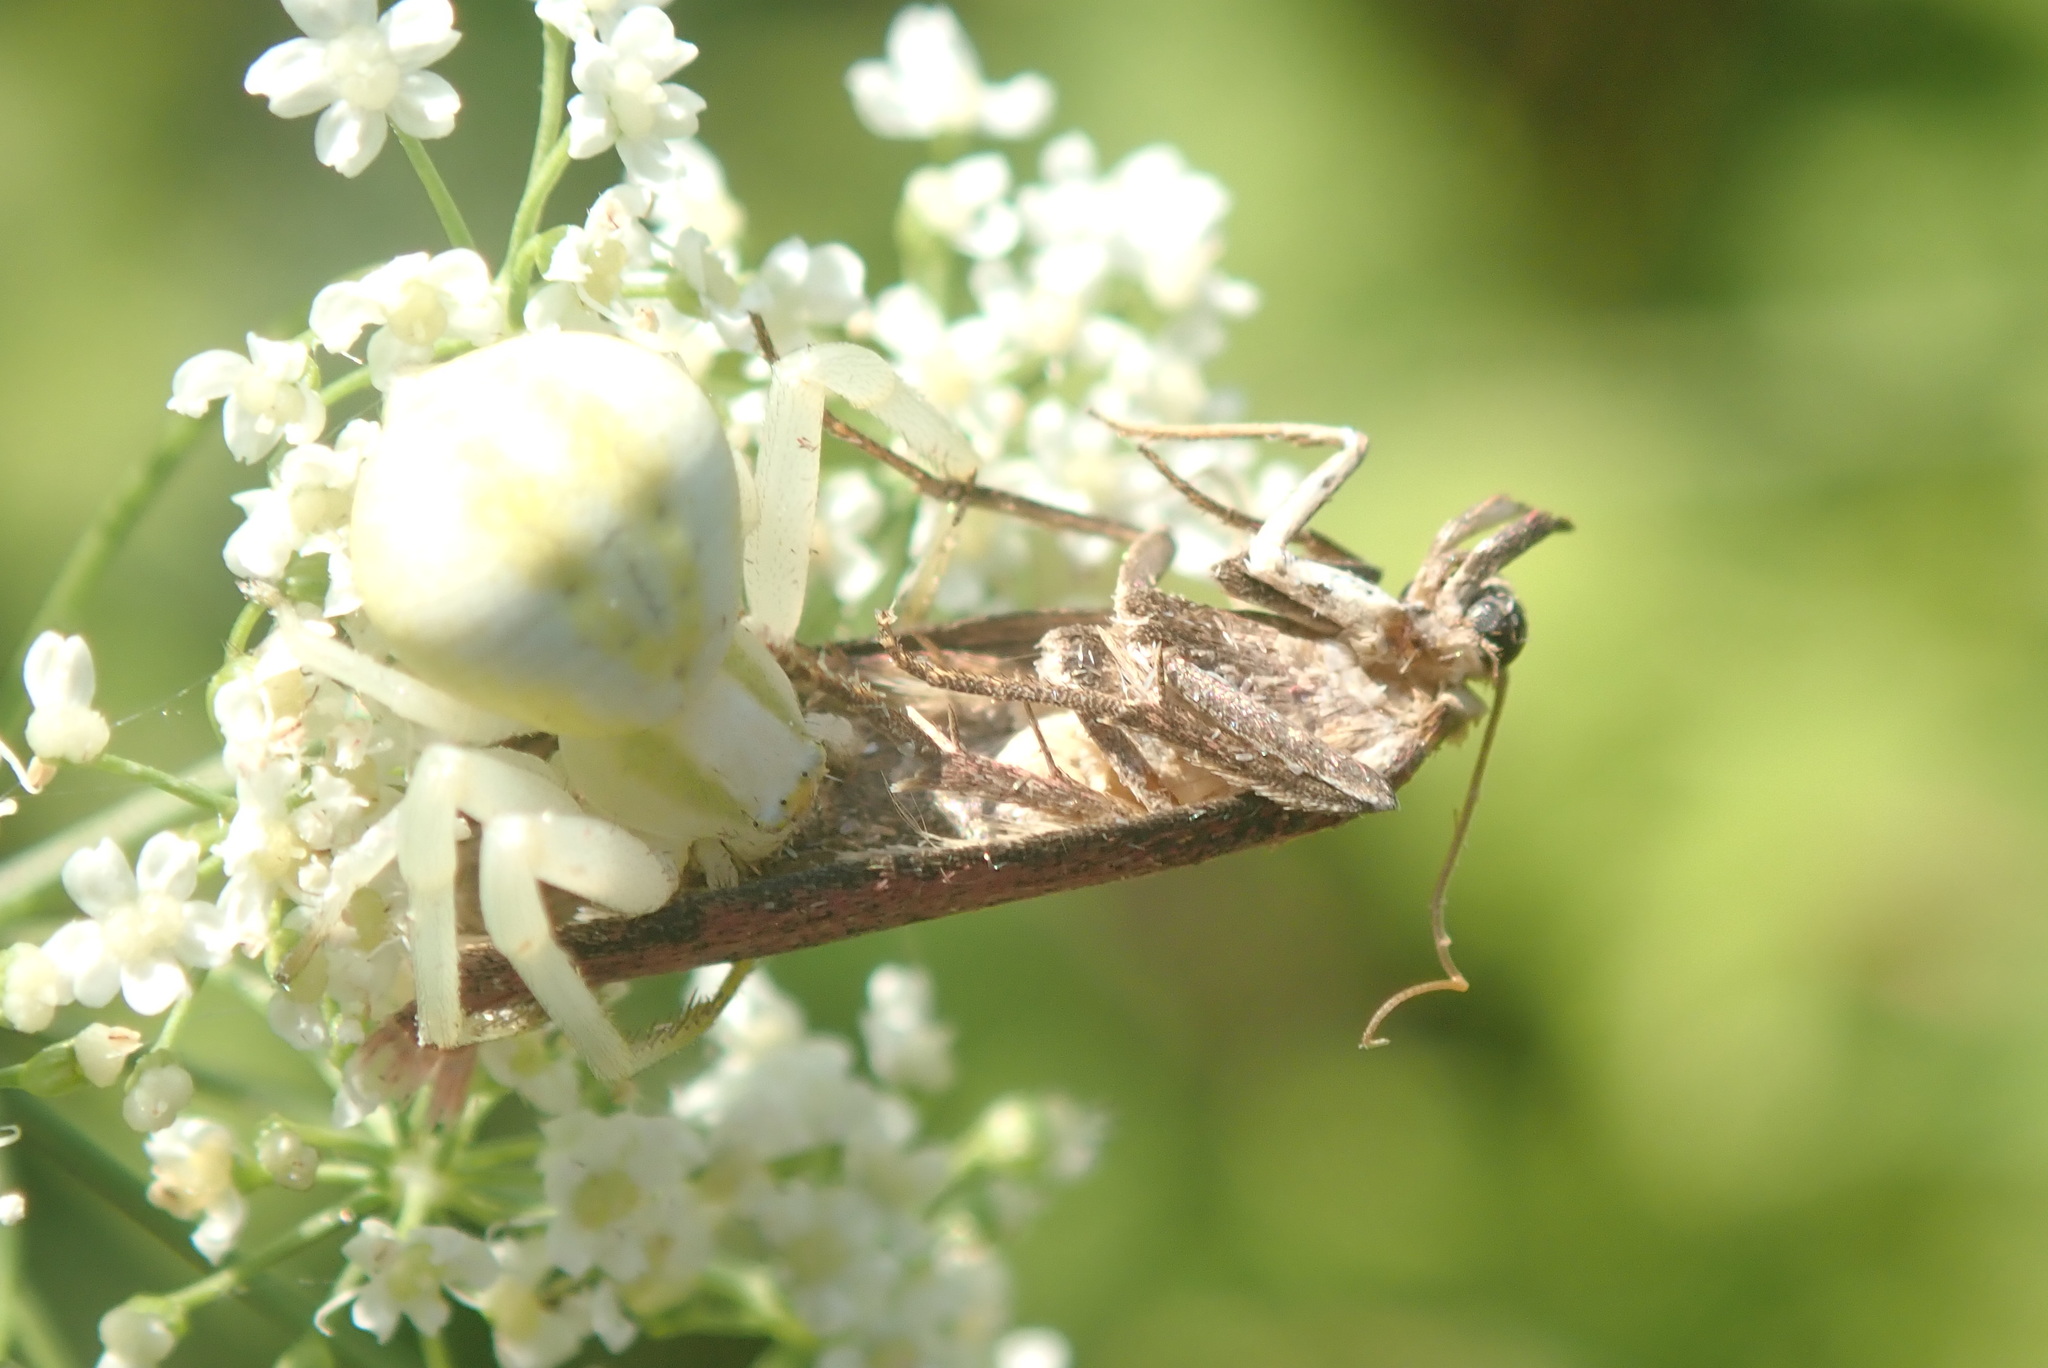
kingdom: Animalia
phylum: Arthropoda
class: Arachnida
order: Araneae
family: Thomisidae
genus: Misumena
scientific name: Misumena vatia
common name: Goldenrod crab spider
